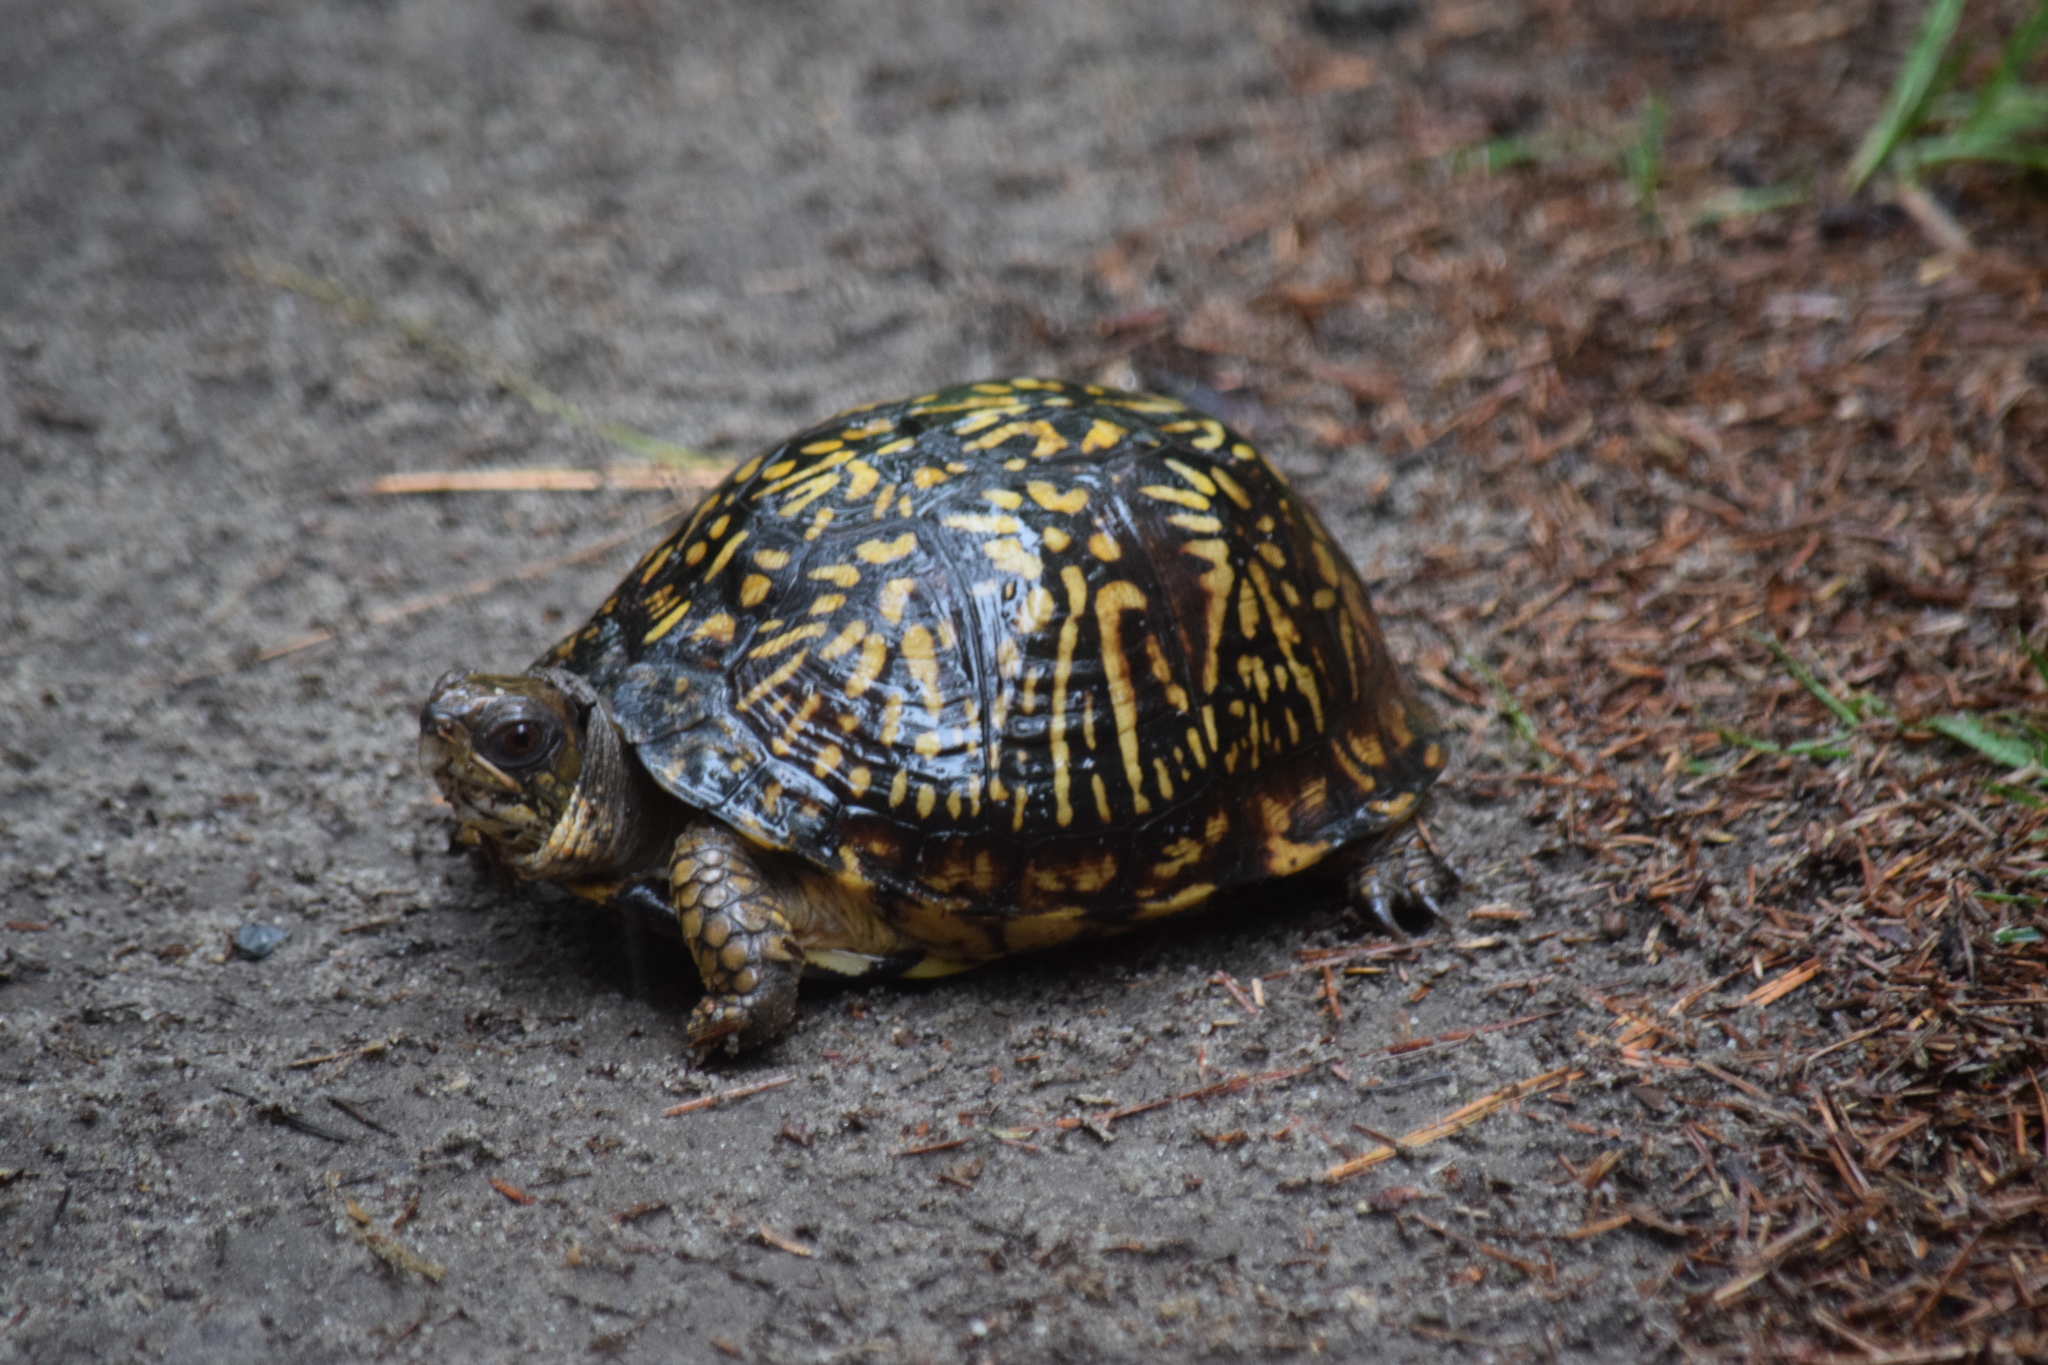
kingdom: Animalia
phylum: Chordata
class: Testudines
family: Emydidae
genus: Terrapene
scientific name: Terrapene carolina
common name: Common box turtle
